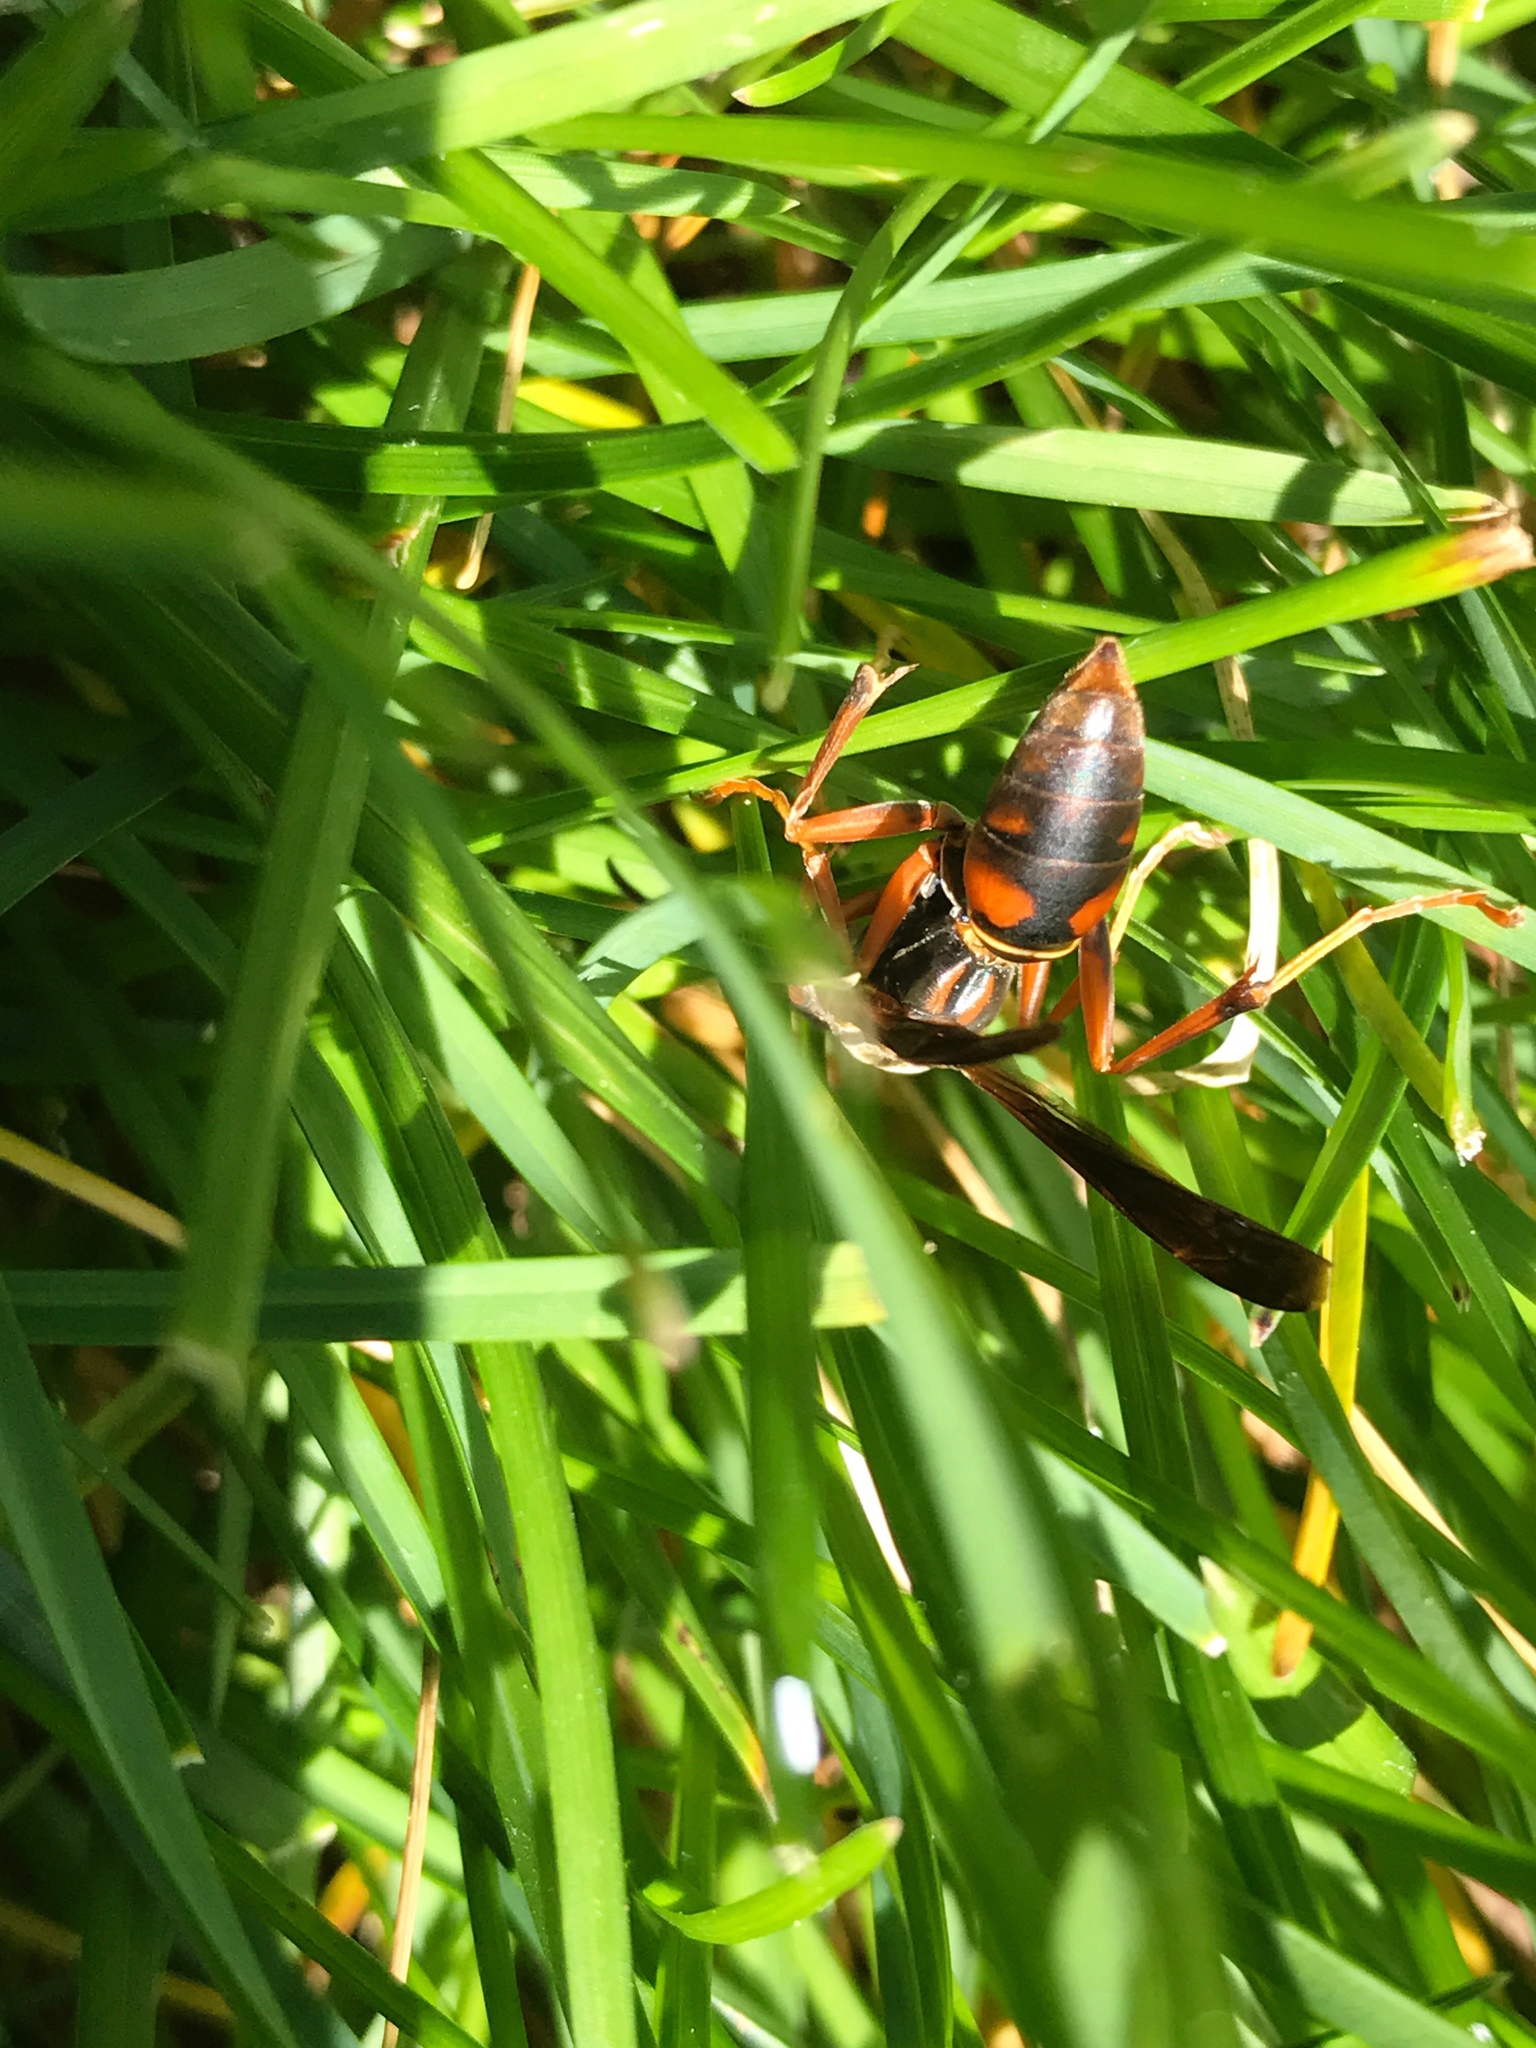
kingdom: Animalia
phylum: Arthropoda
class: Insecta
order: Hymenoptera
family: Eumenidae
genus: Polistes
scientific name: Polistes fuscatus
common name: Dark paper wasp
